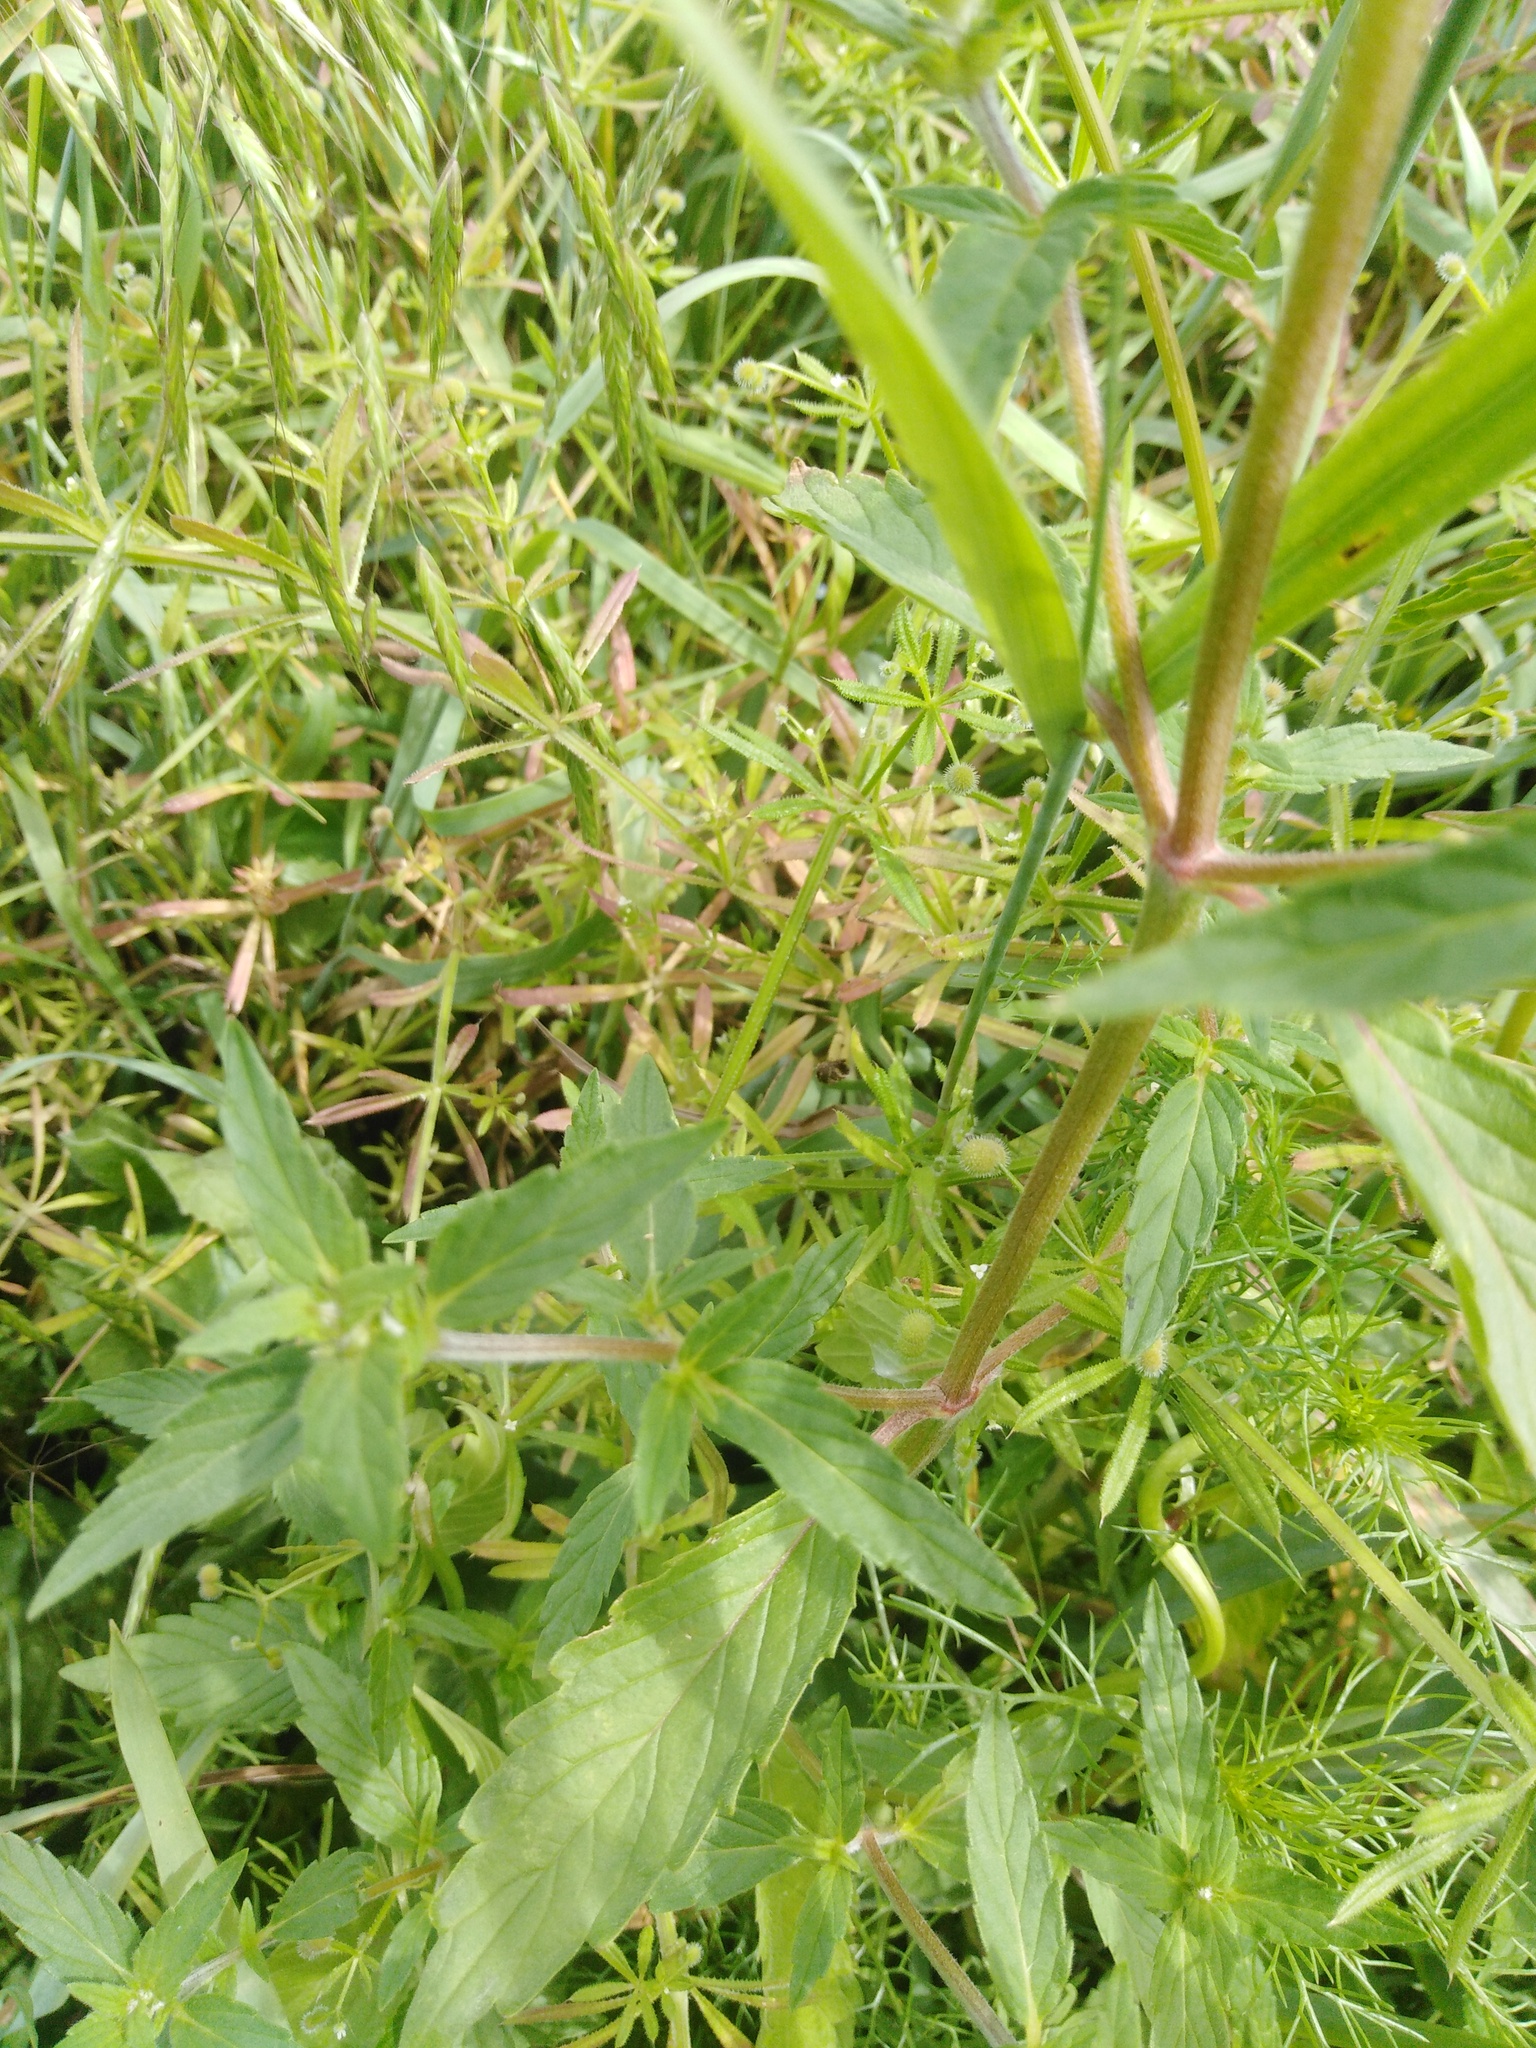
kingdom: Plantae
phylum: Tracheophyta
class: Magnoliopsida
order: Lamiales
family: Lamiaceae
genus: Galeopsis
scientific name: Galeopsis ladanum
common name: Broad-leaved hemp-nettle
